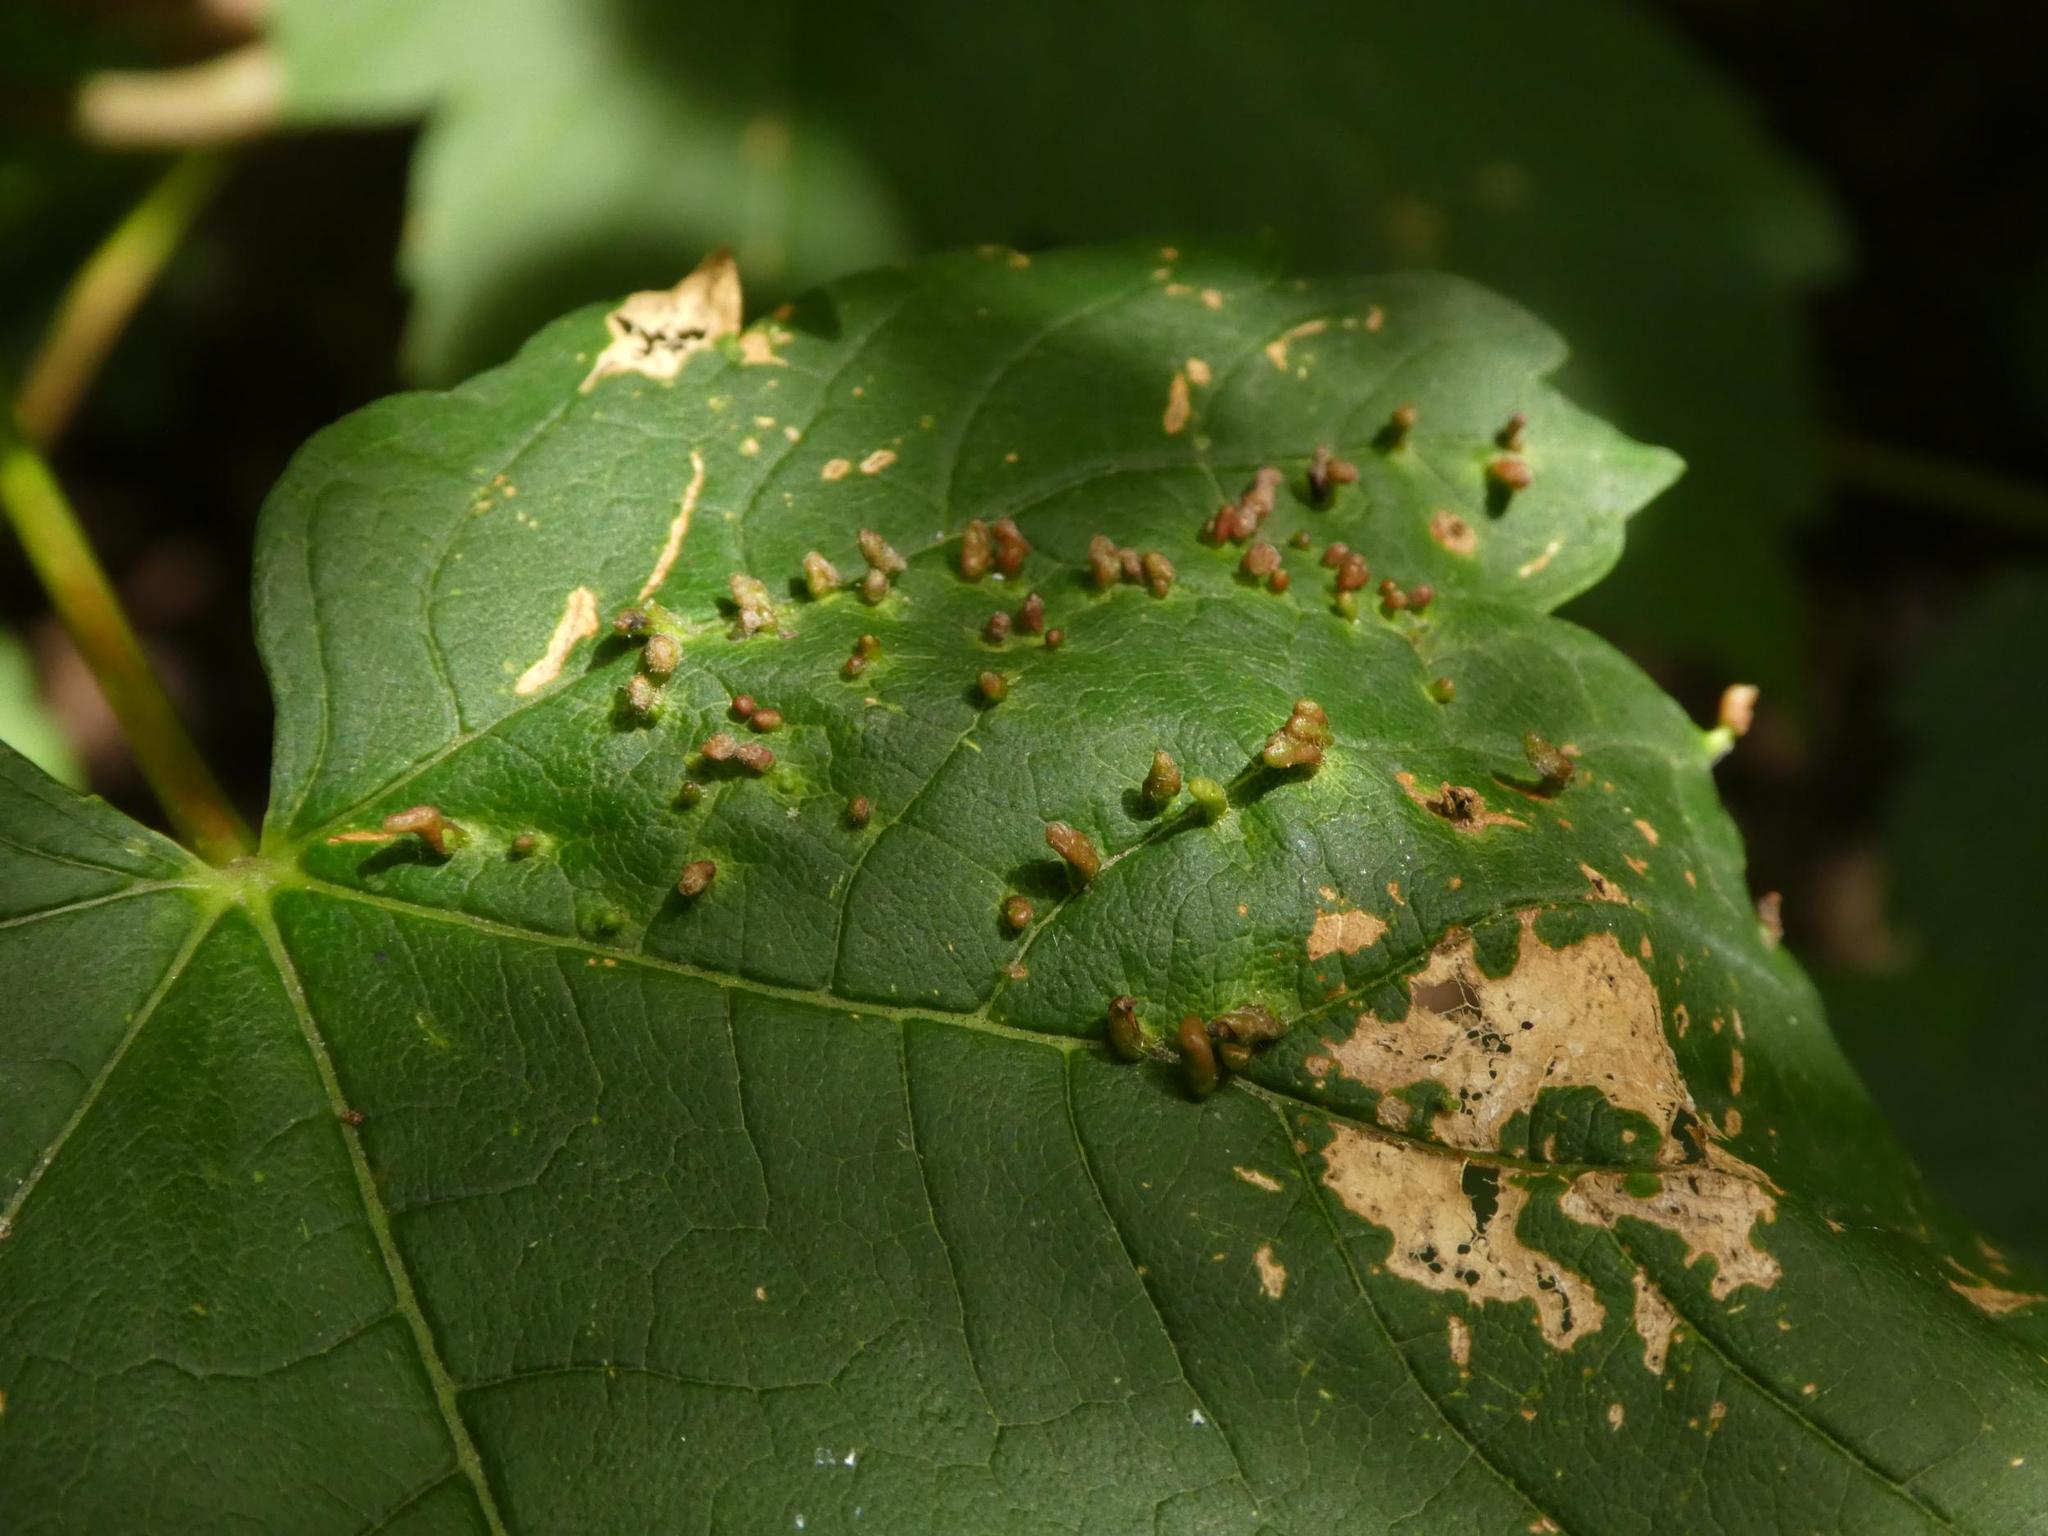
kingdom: Animalia
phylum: Arthropoda
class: Arachnida
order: Trombidiformes
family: Eriophyidae
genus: Aceria
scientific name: Aceria cephaloneus
